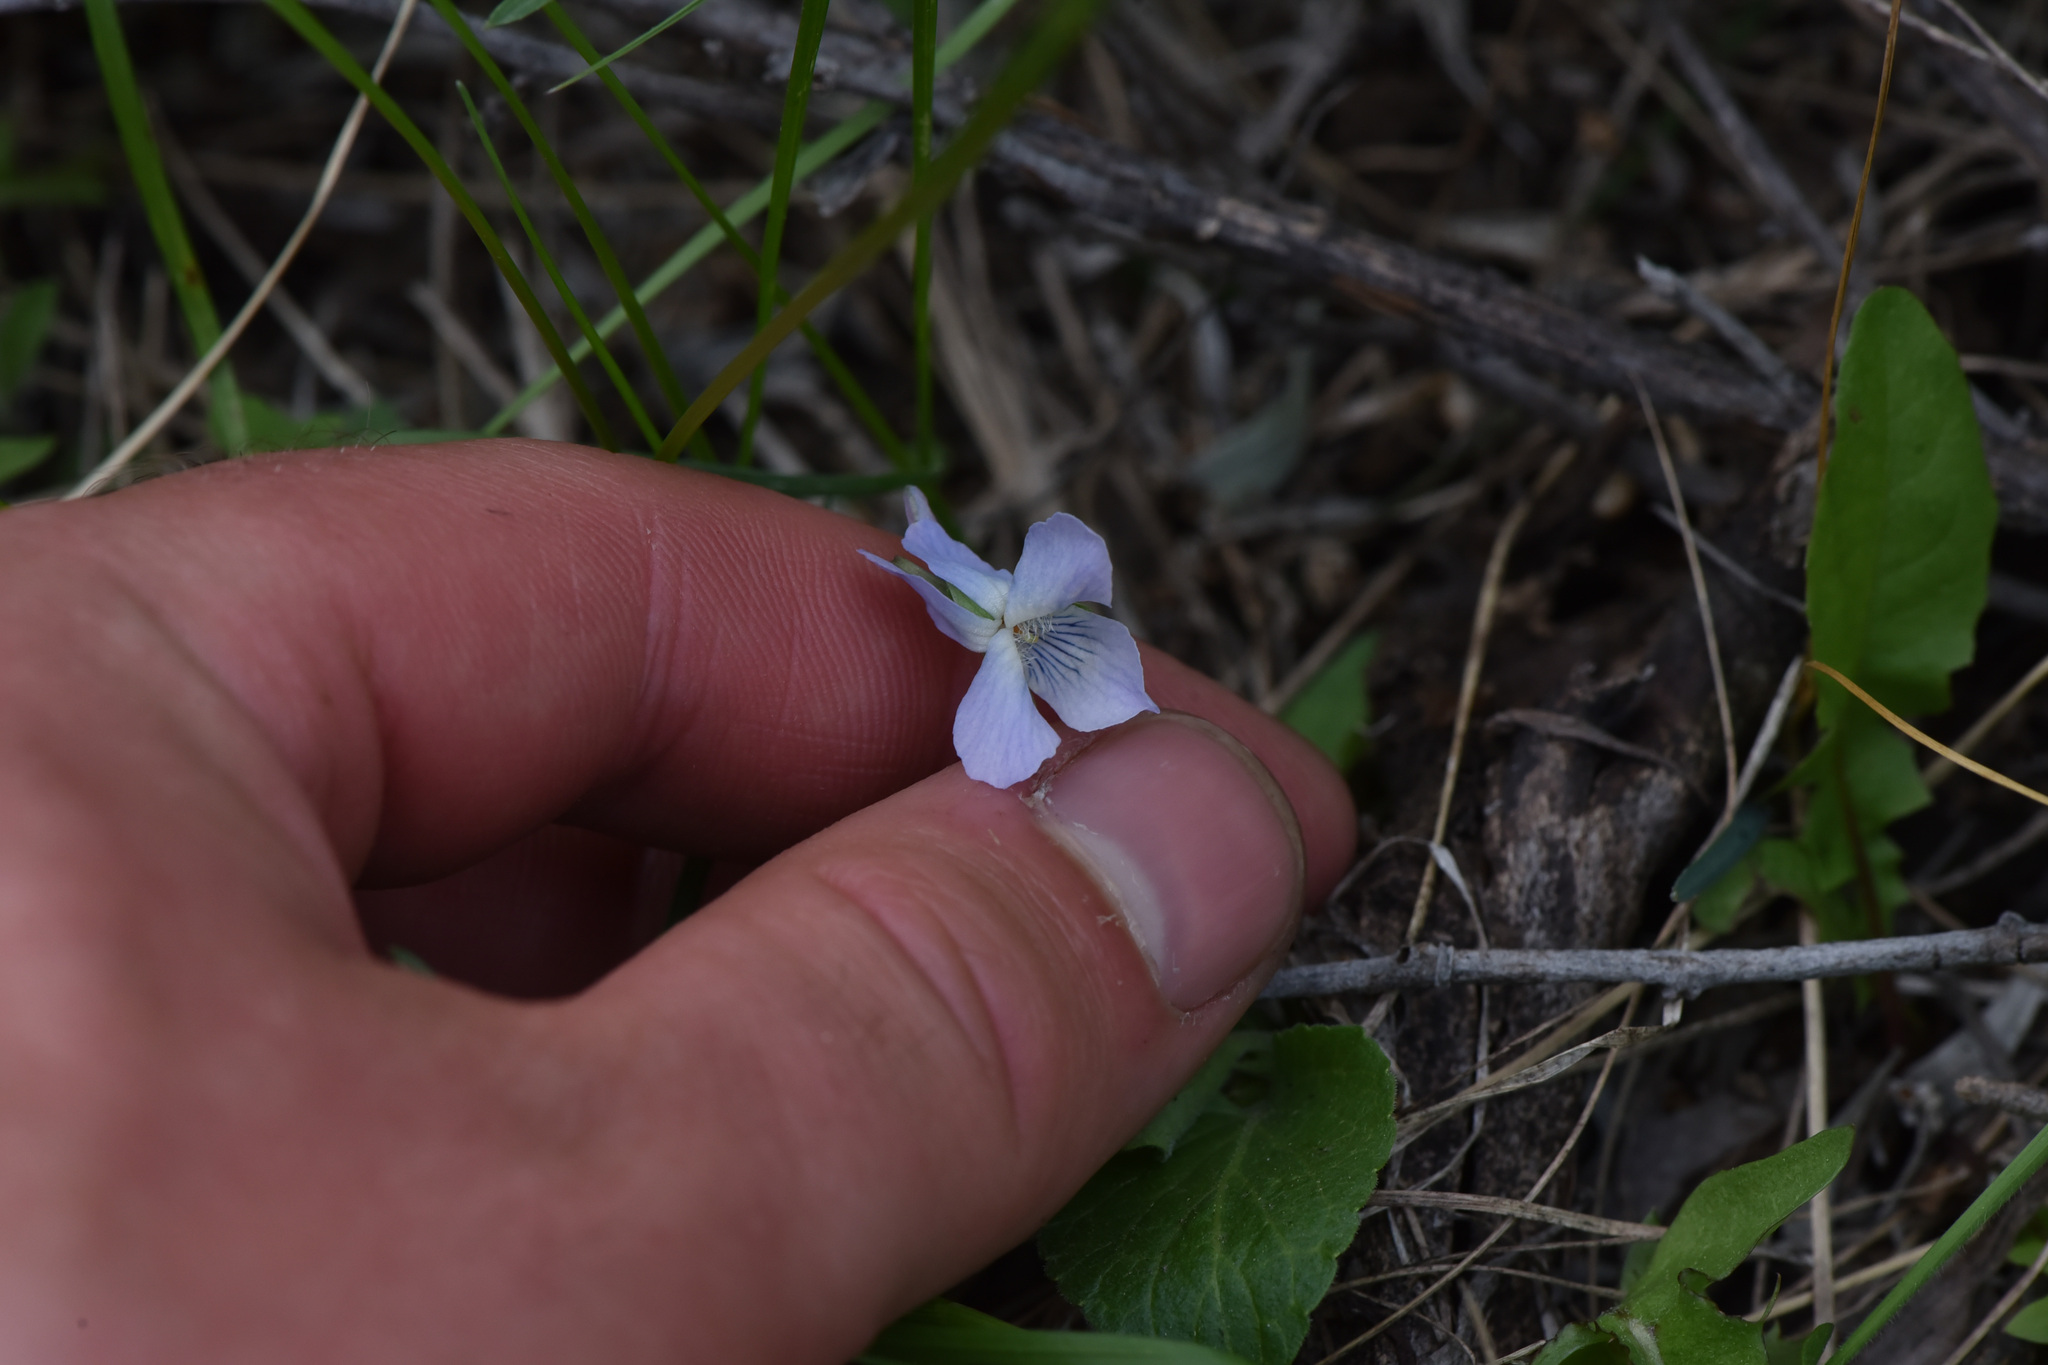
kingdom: Plantae
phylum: Tracheophyta
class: Magnoliopsida
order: Malpighiales
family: Violaceae
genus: Viola
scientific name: Viola adunca
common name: Sand violet
